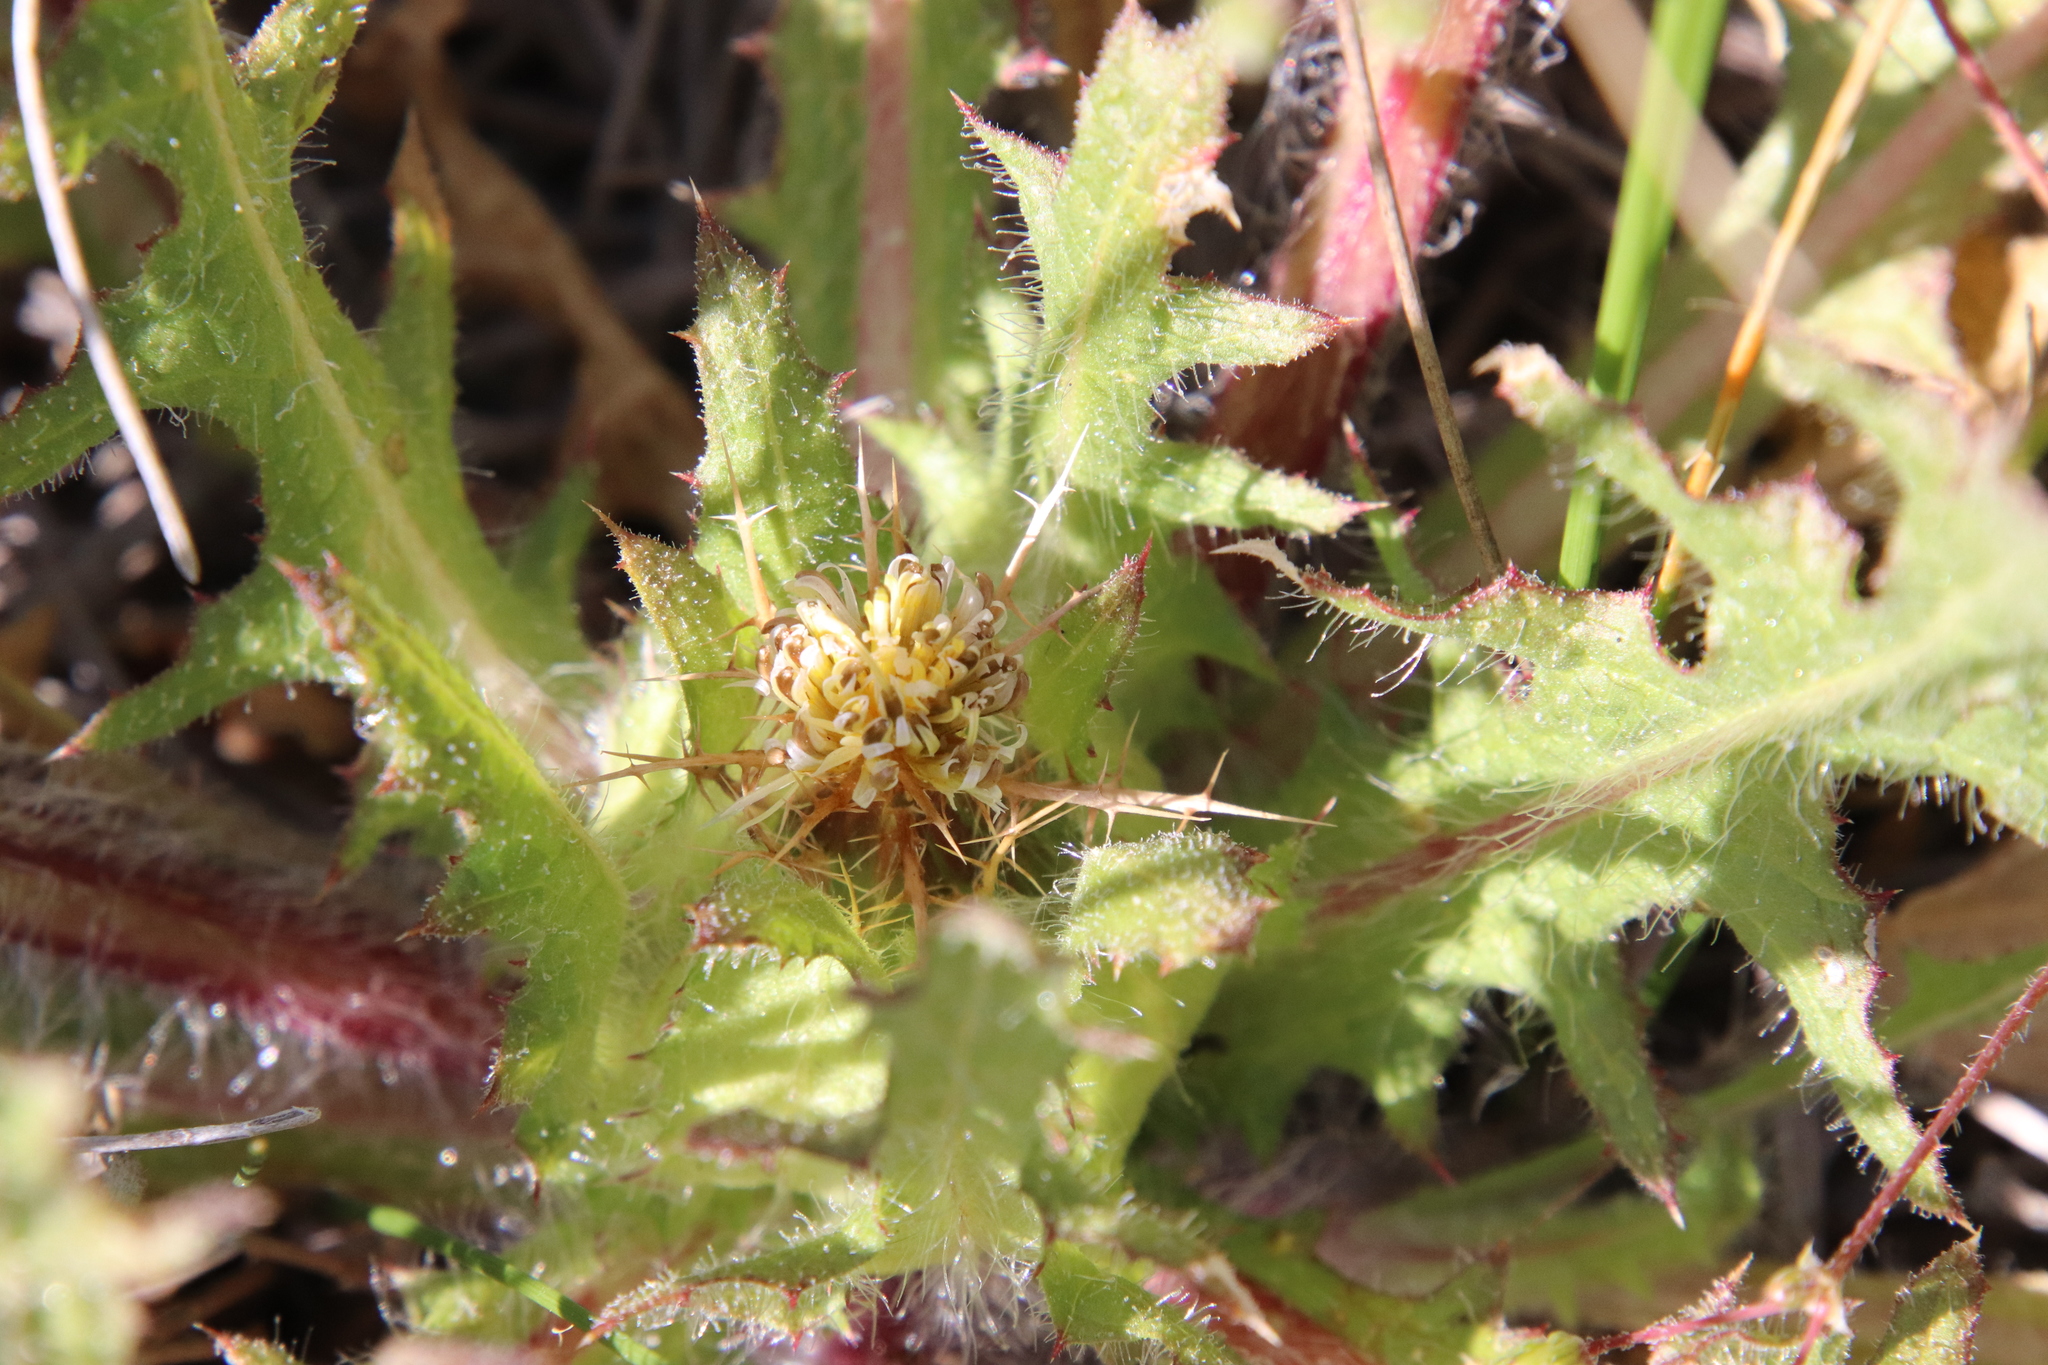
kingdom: Plantae
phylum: Tracheophyta
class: Magnoliopsida
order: Asterales
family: Asteraceae
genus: Centaurea
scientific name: Centaurea benedicta
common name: Blessed thistle
